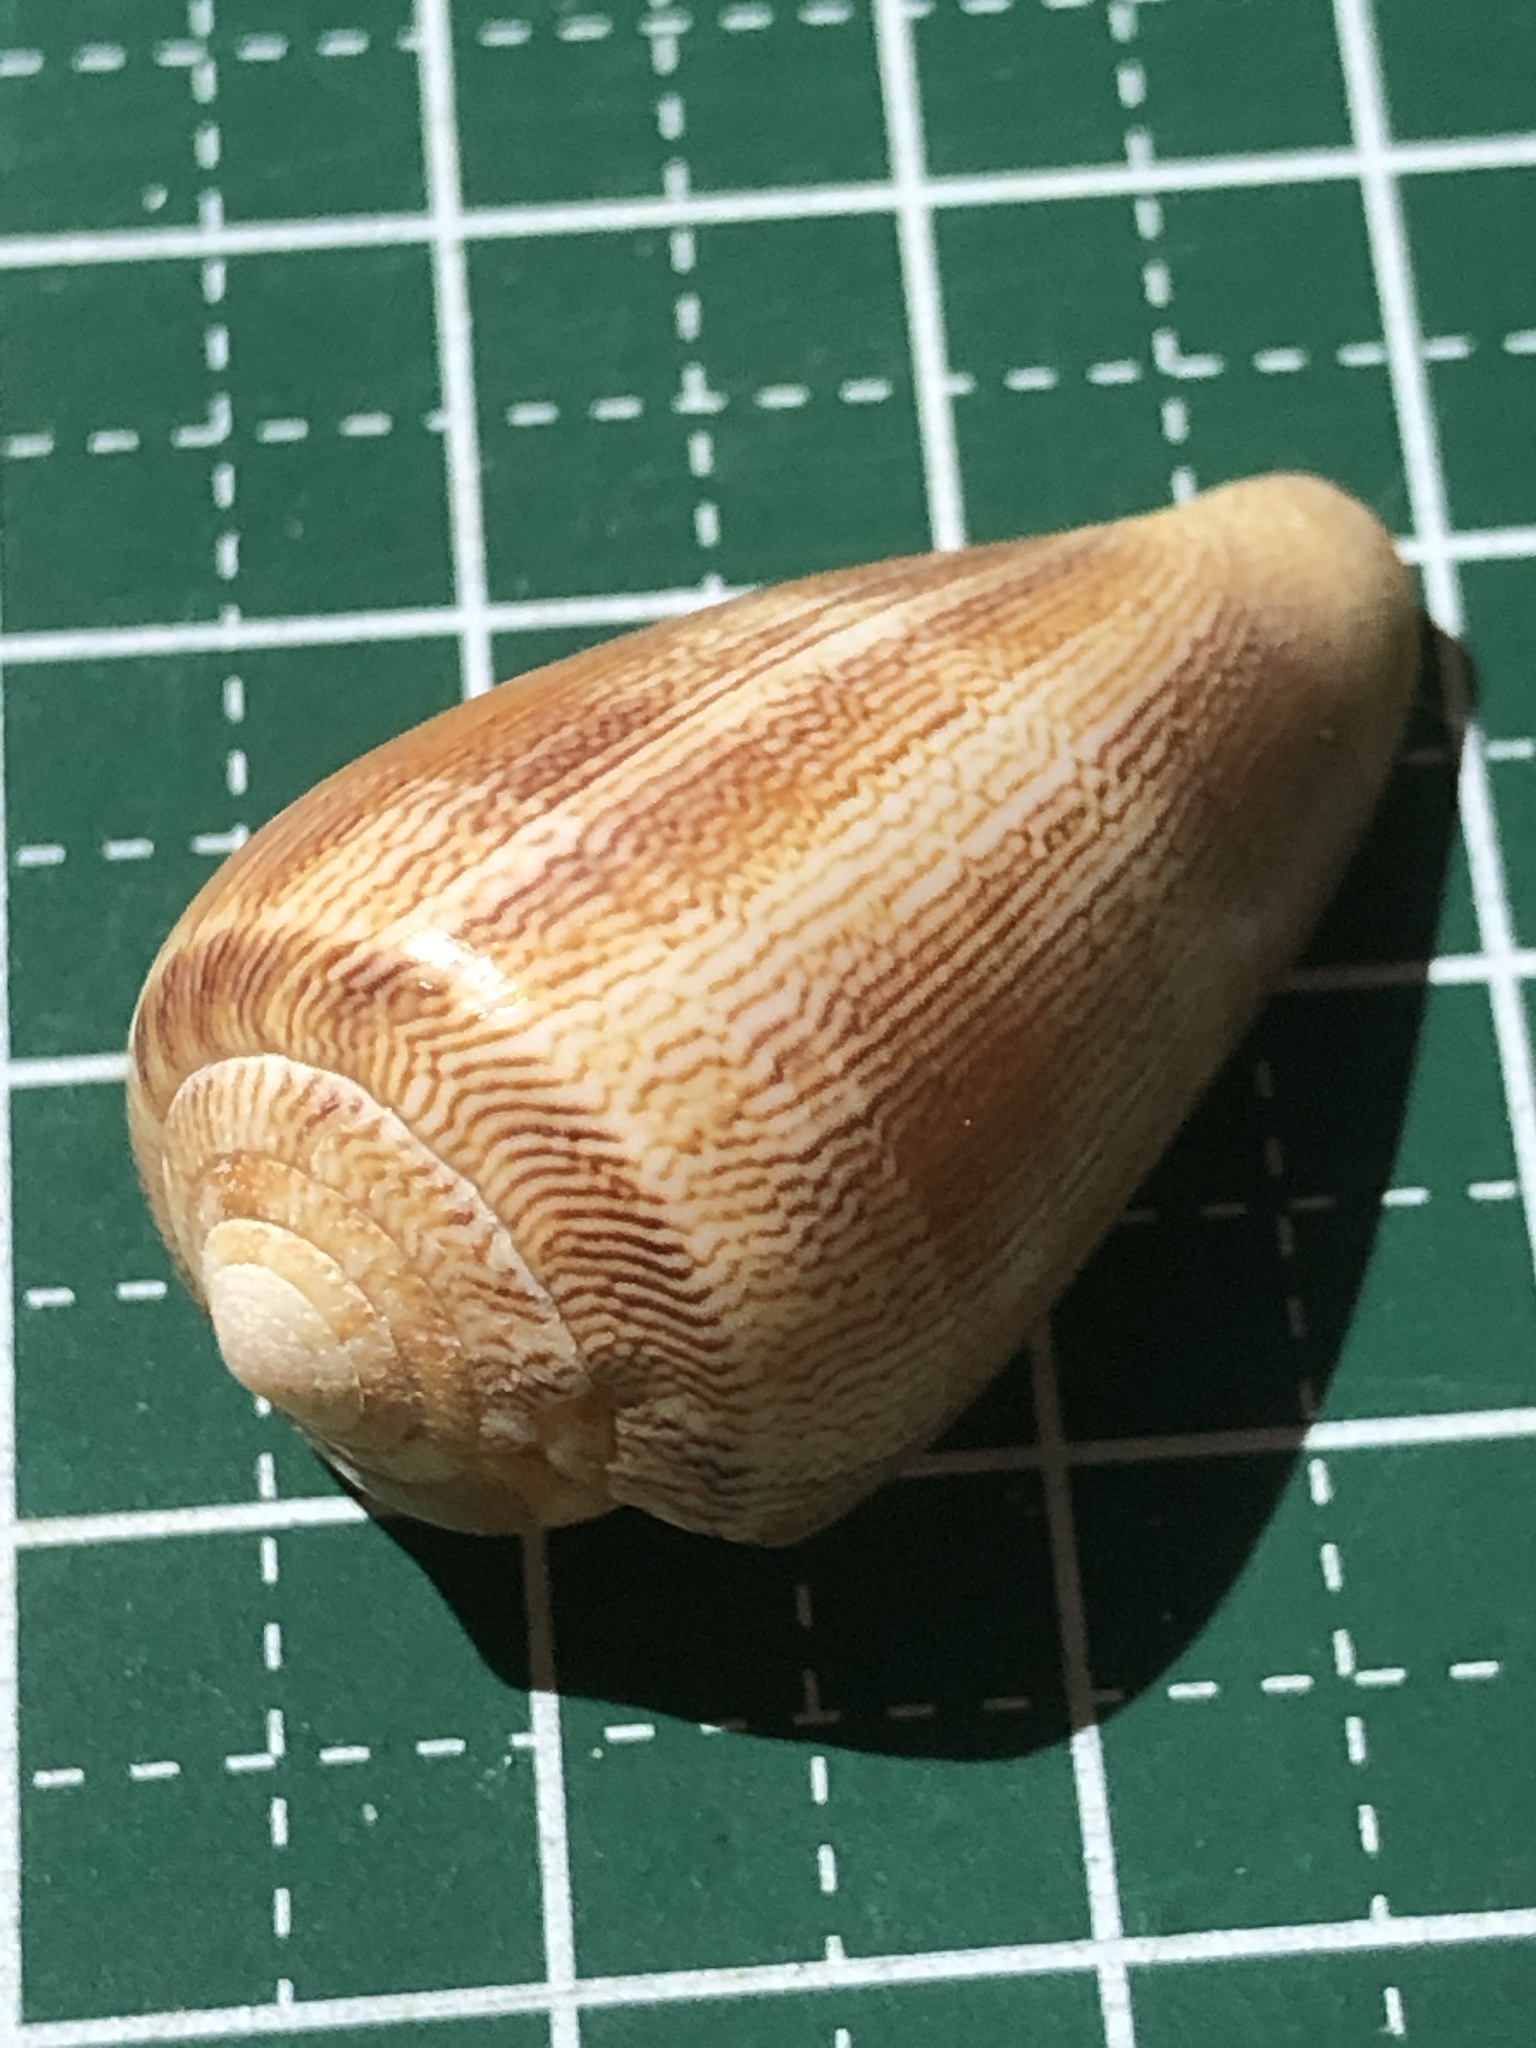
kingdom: Animalia
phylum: Mollusca
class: Gastropoda
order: Neogastropoda
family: Conidae
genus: Conus
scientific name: Conus omaria
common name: Omaria cone
